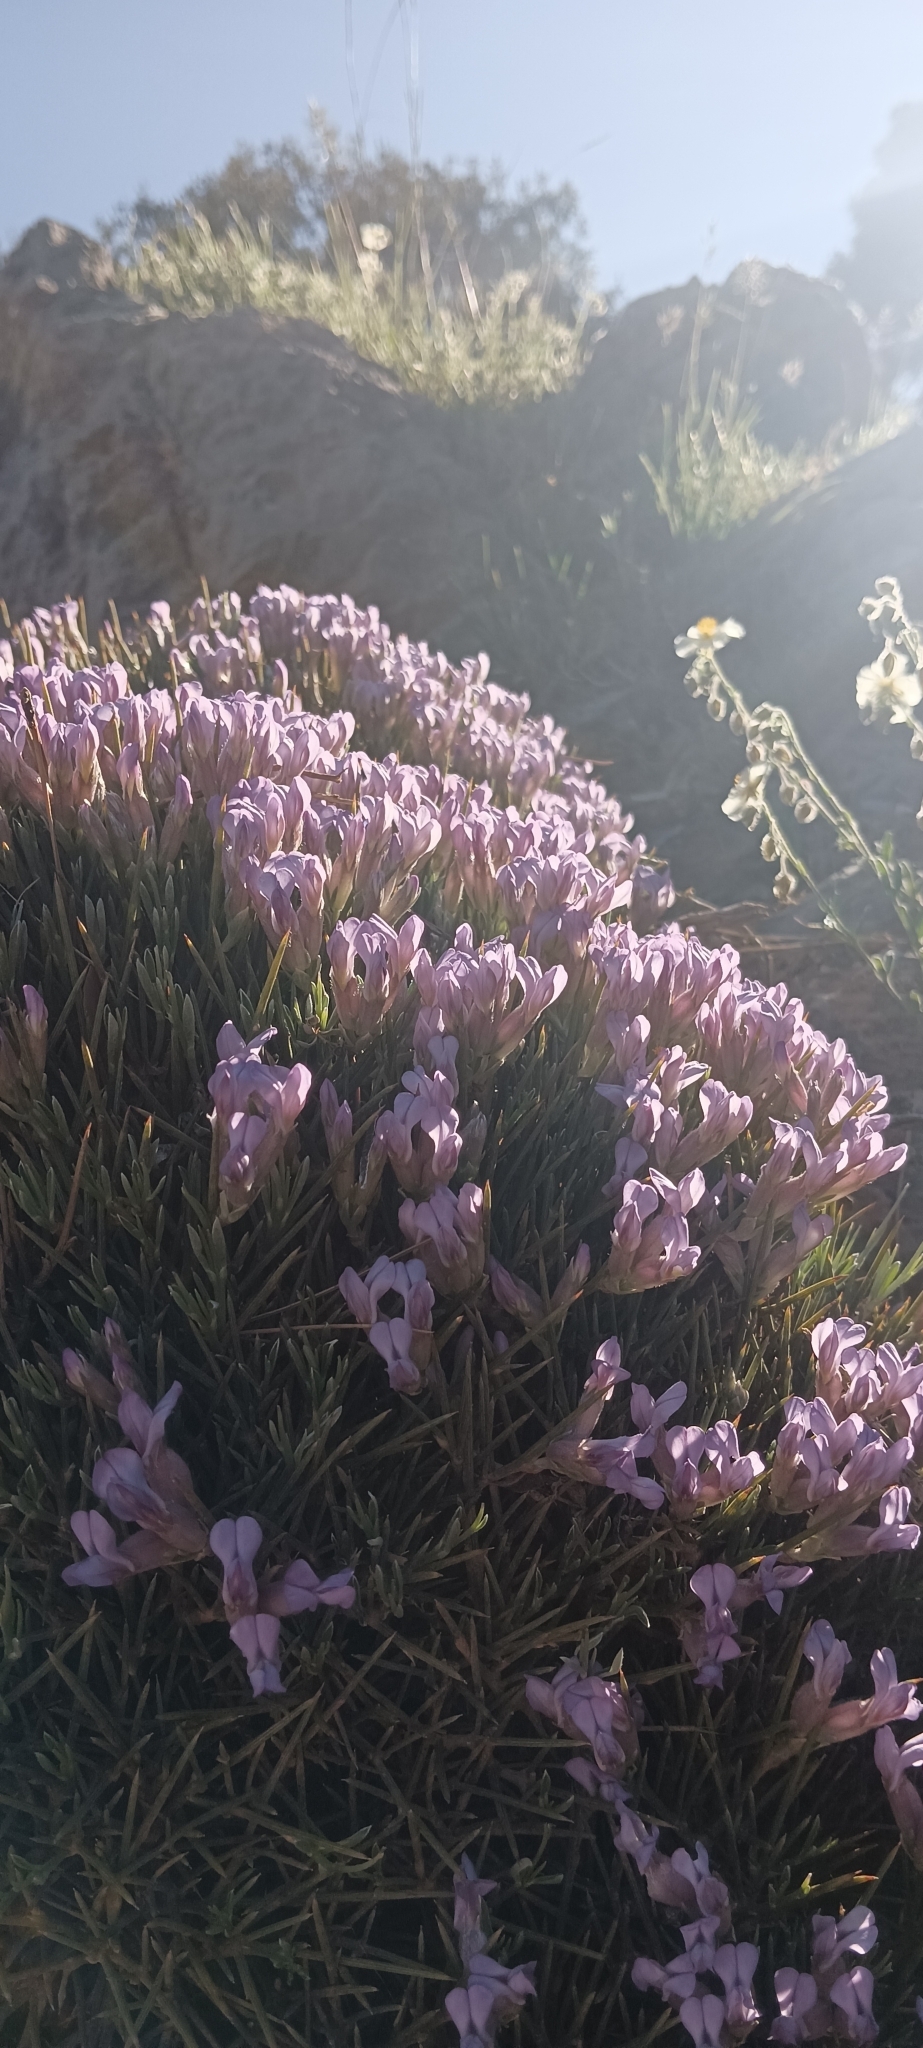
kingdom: Plantae
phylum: Tracheophyta
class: Magnoliopsida
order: Fabales
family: Fabaceae
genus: Erinacea
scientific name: Erinacea anthyllis
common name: Hedgehog-broom
